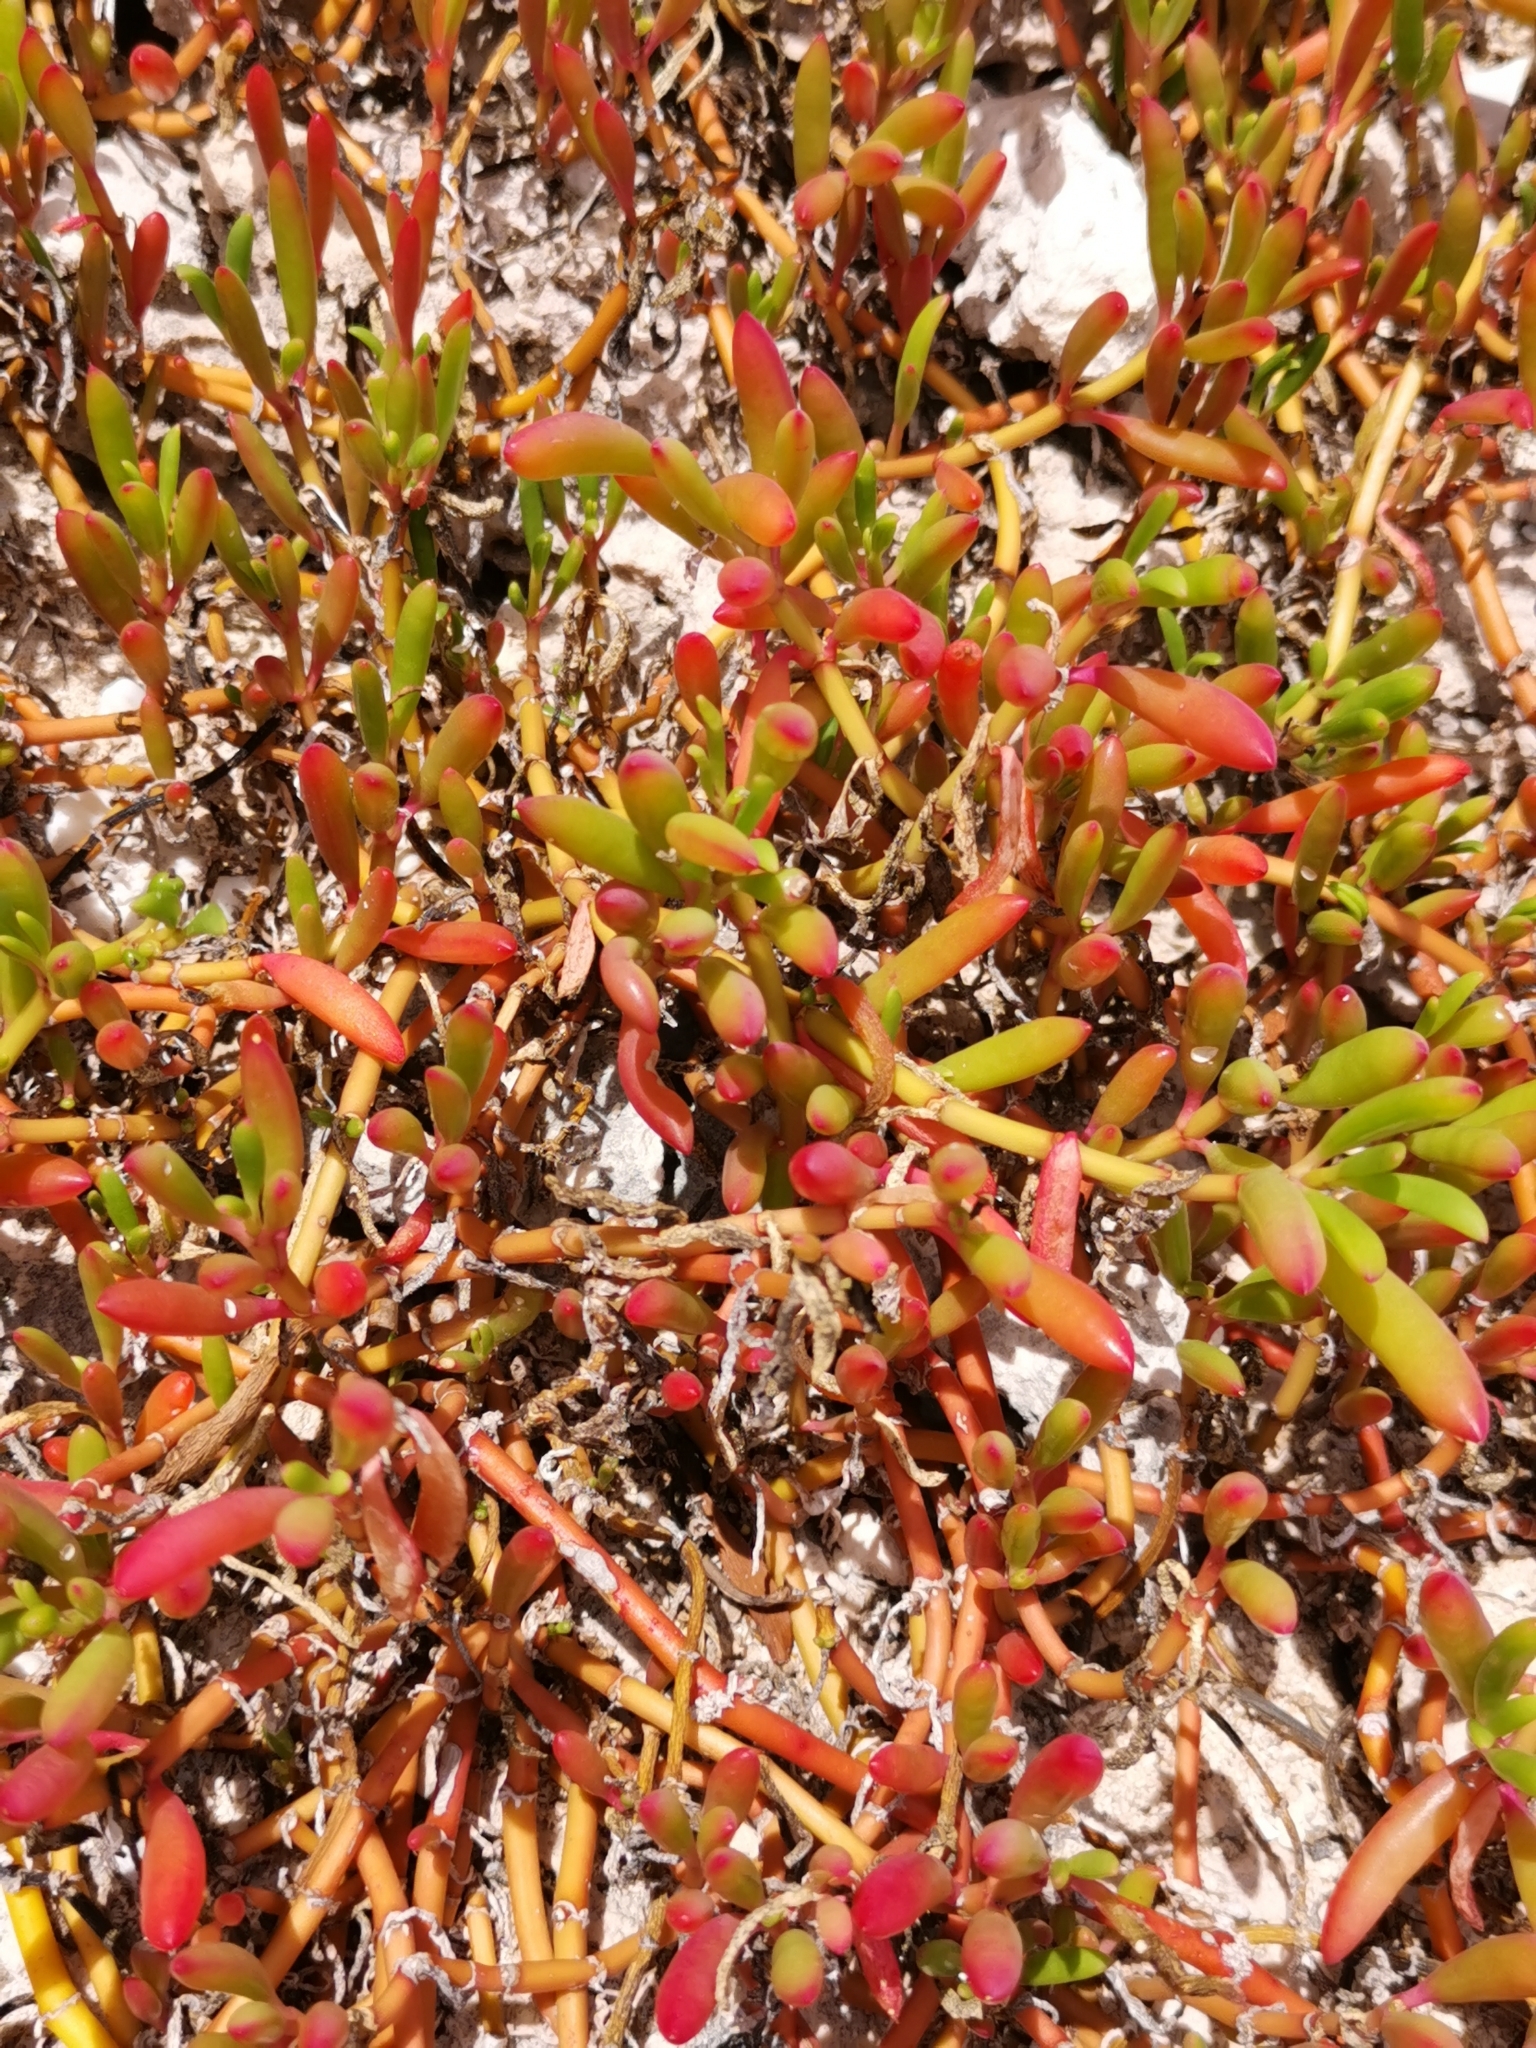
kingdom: Plantae
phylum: Tracheophyta
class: Magnoliopsida
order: Caryophyllales
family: Aizoaceae
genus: Sesuvium
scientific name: Sesuvium portulacastrum
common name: Sea-purslane
